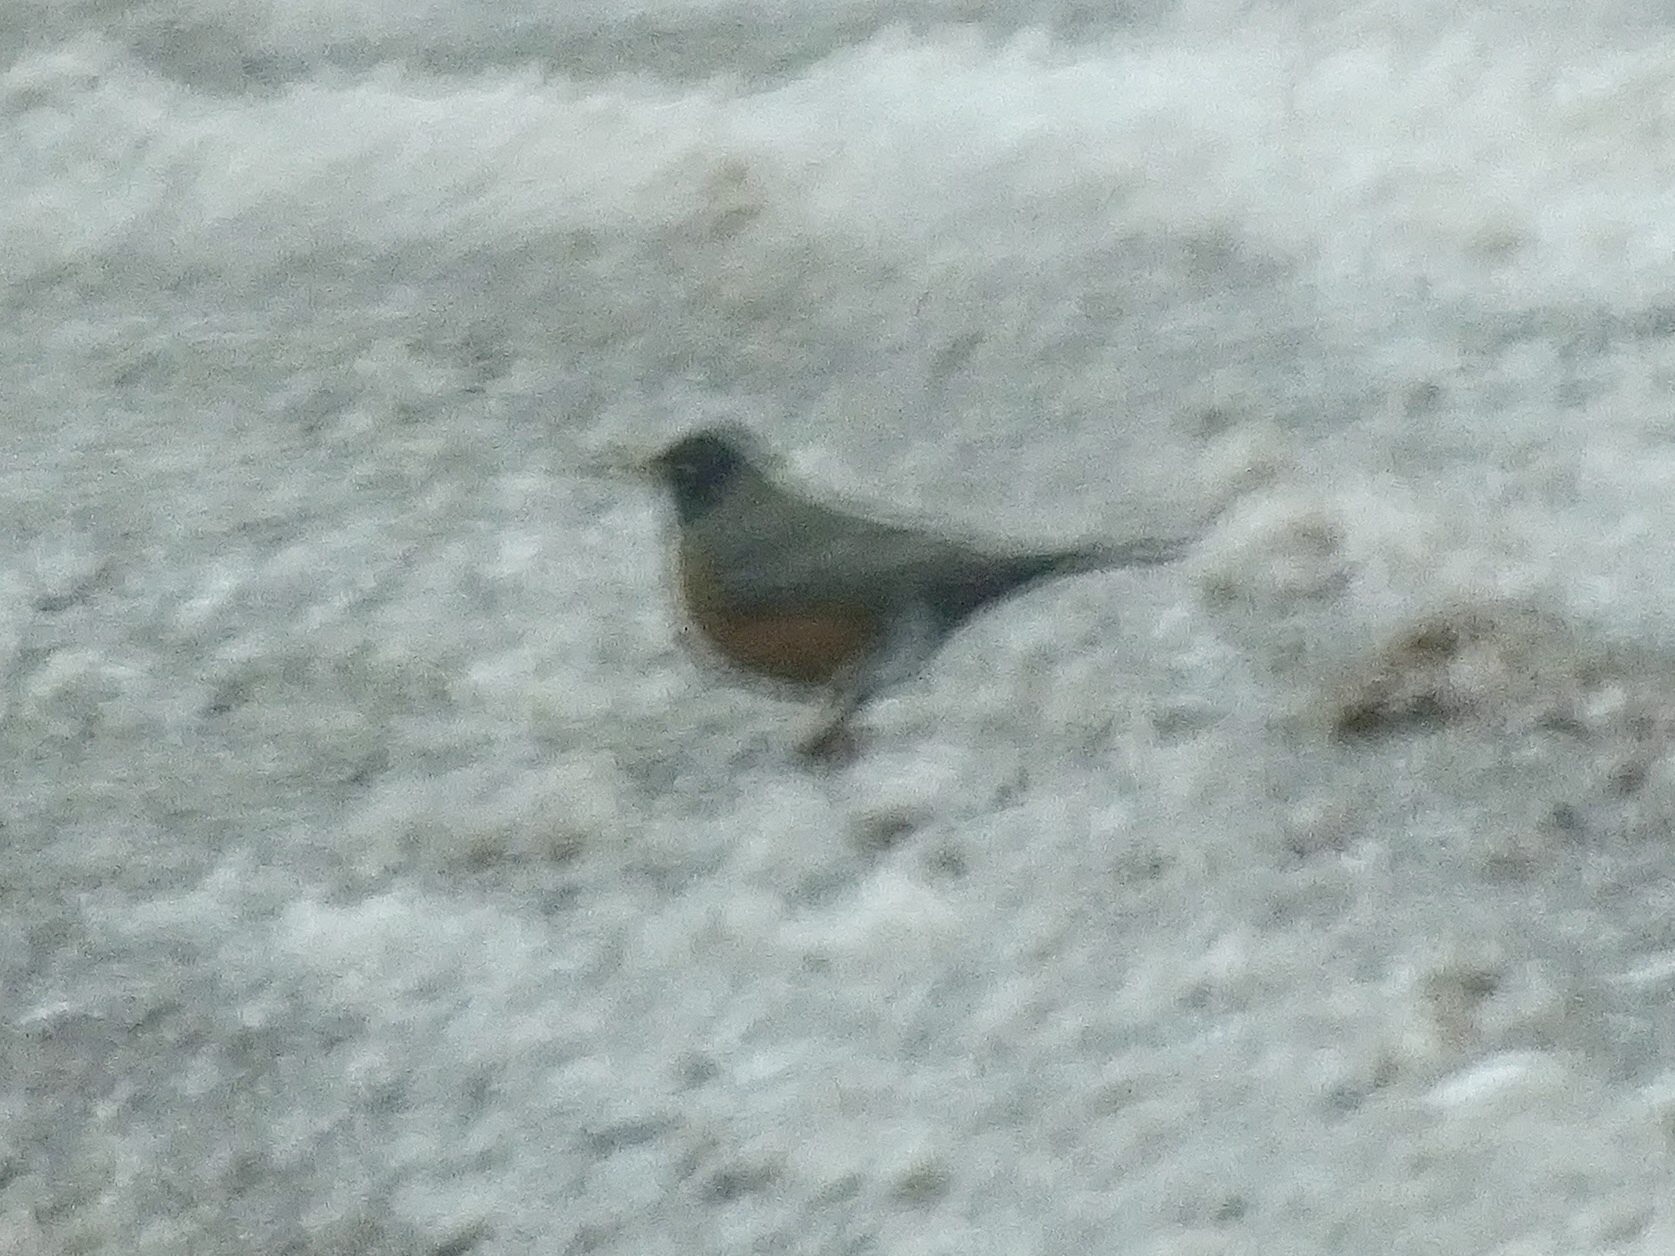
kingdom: Animalia
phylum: Chordata
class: Aves
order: Passeriformes
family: Turdidae
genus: Turdus
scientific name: Turdus migratorius
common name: American robin
